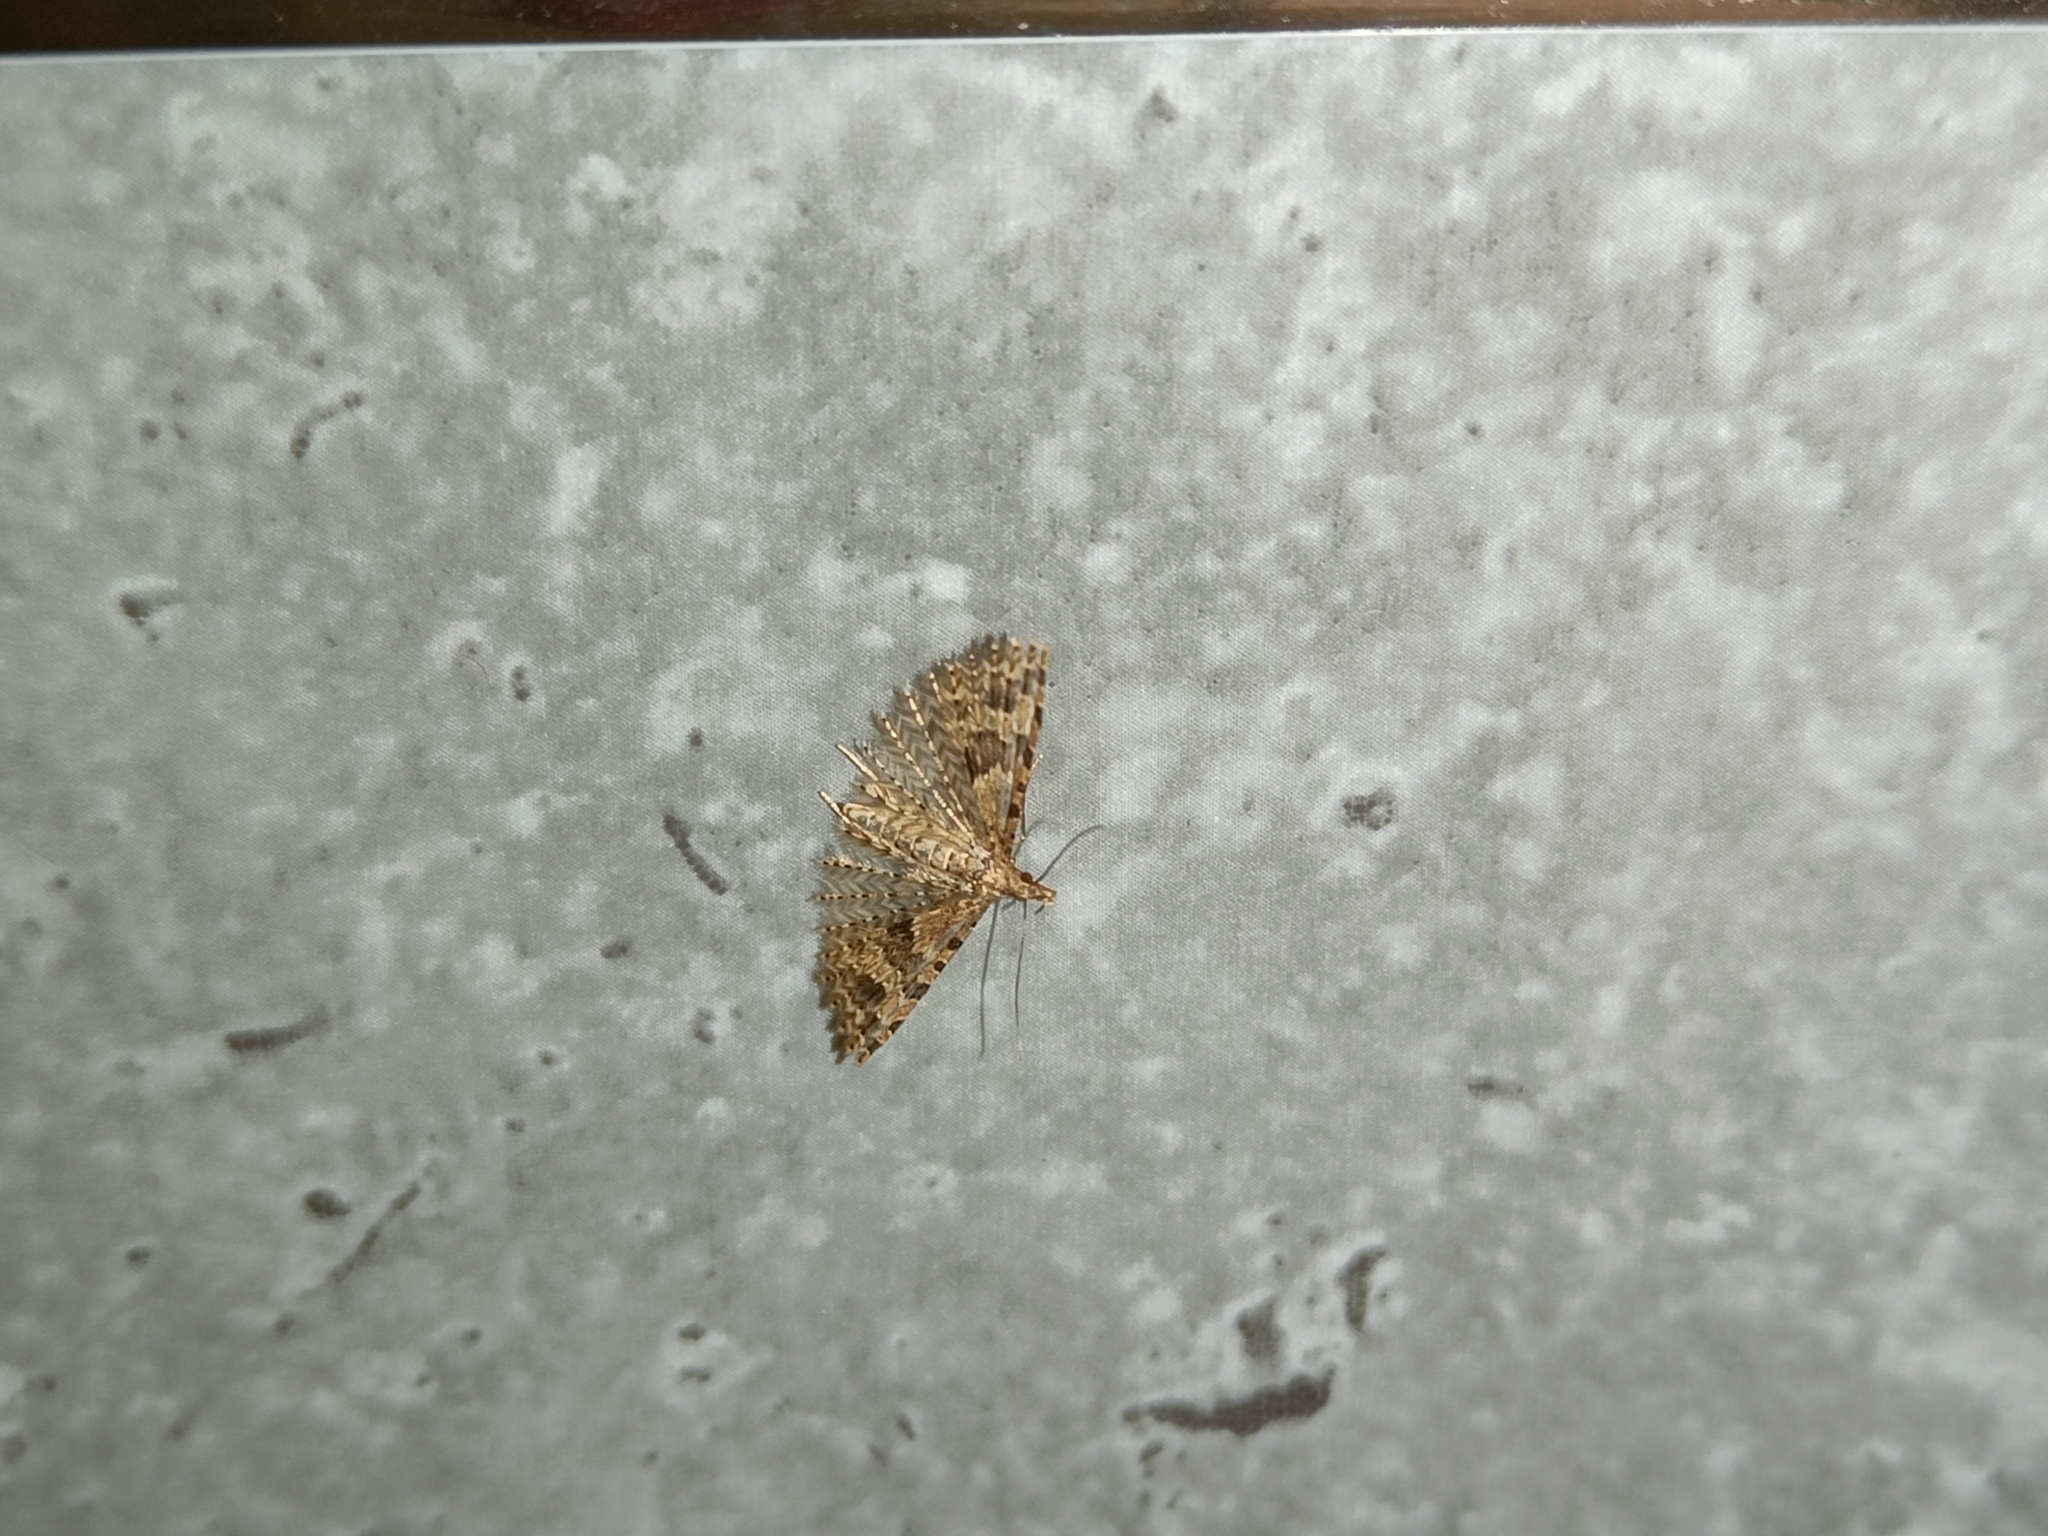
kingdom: Animalia
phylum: Arthropoda
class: Insecta
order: Lepidoptera
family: Alucitidae
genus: Alucita
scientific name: Alucita hexadactyla
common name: Twenty-plume moth
